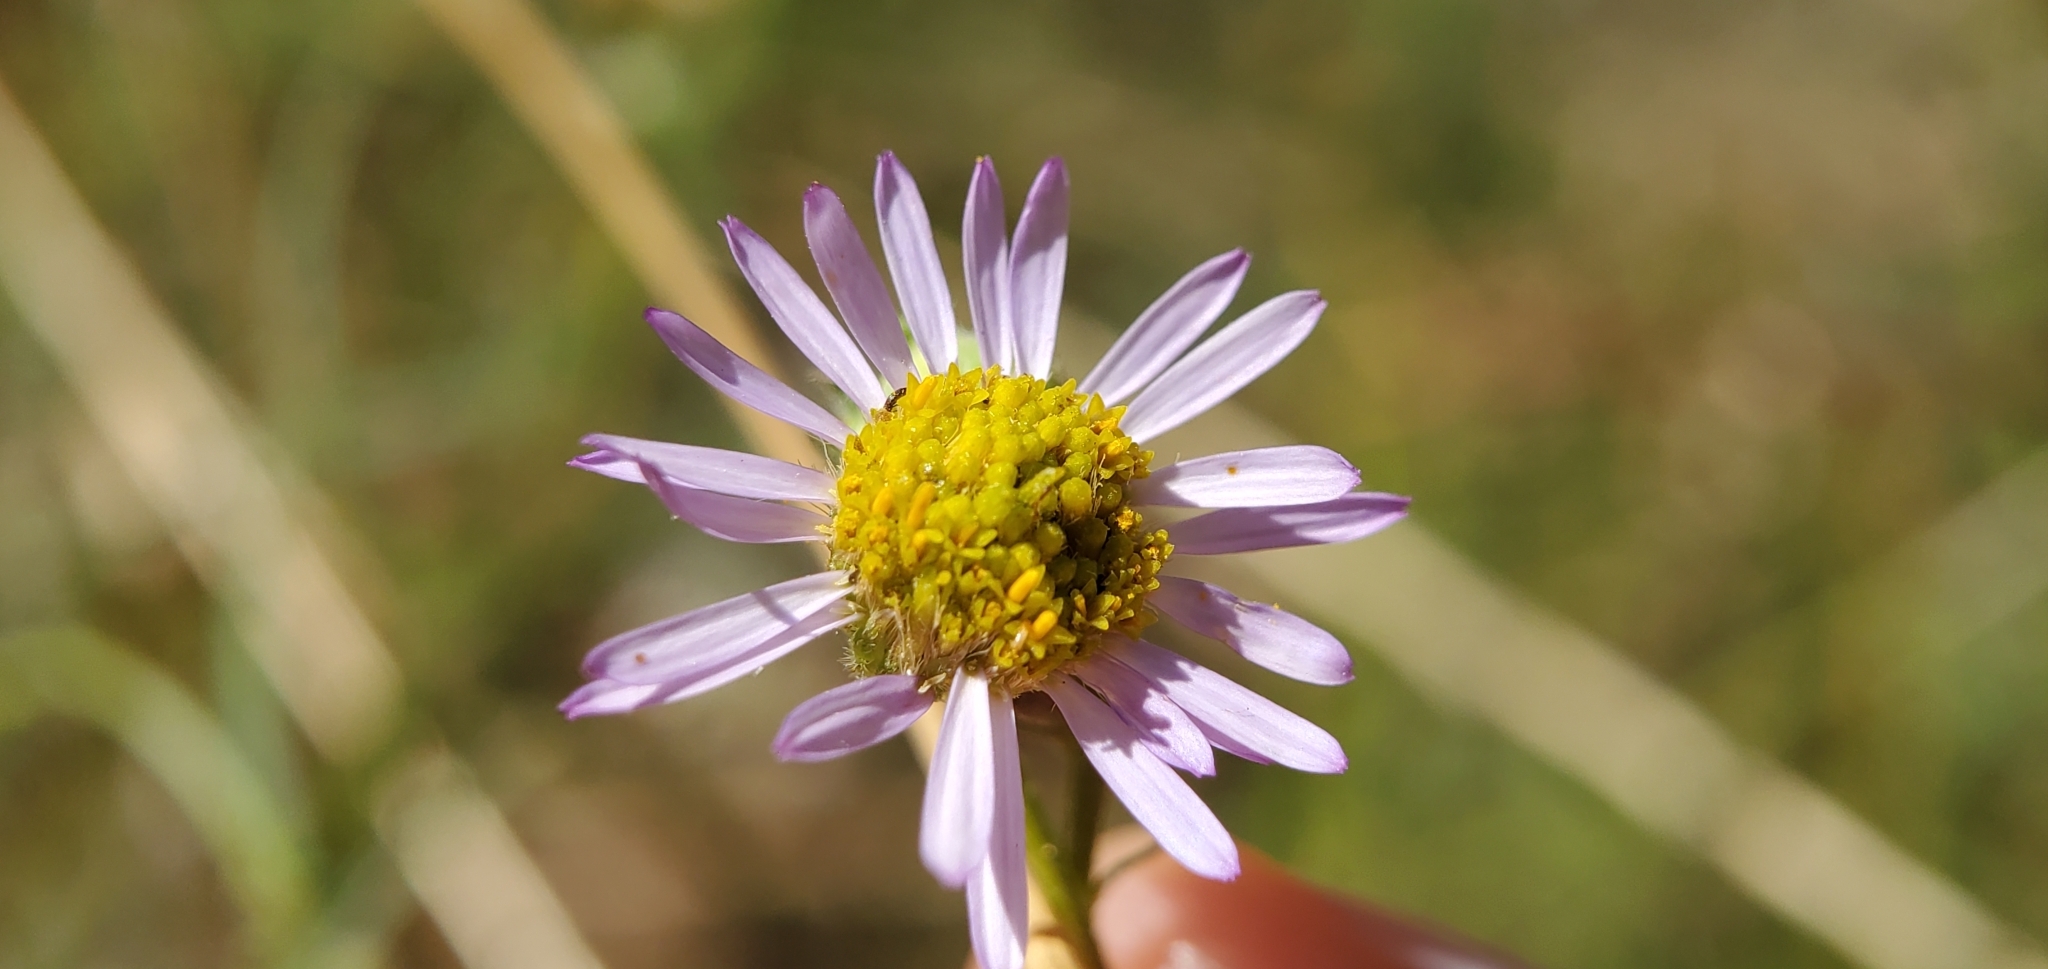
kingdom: Plantae
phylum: Tracheophyta
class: Magnoliopsida
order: Asterales
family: Asteraceae
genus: Erigeron
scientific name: Erigeron foliosus
